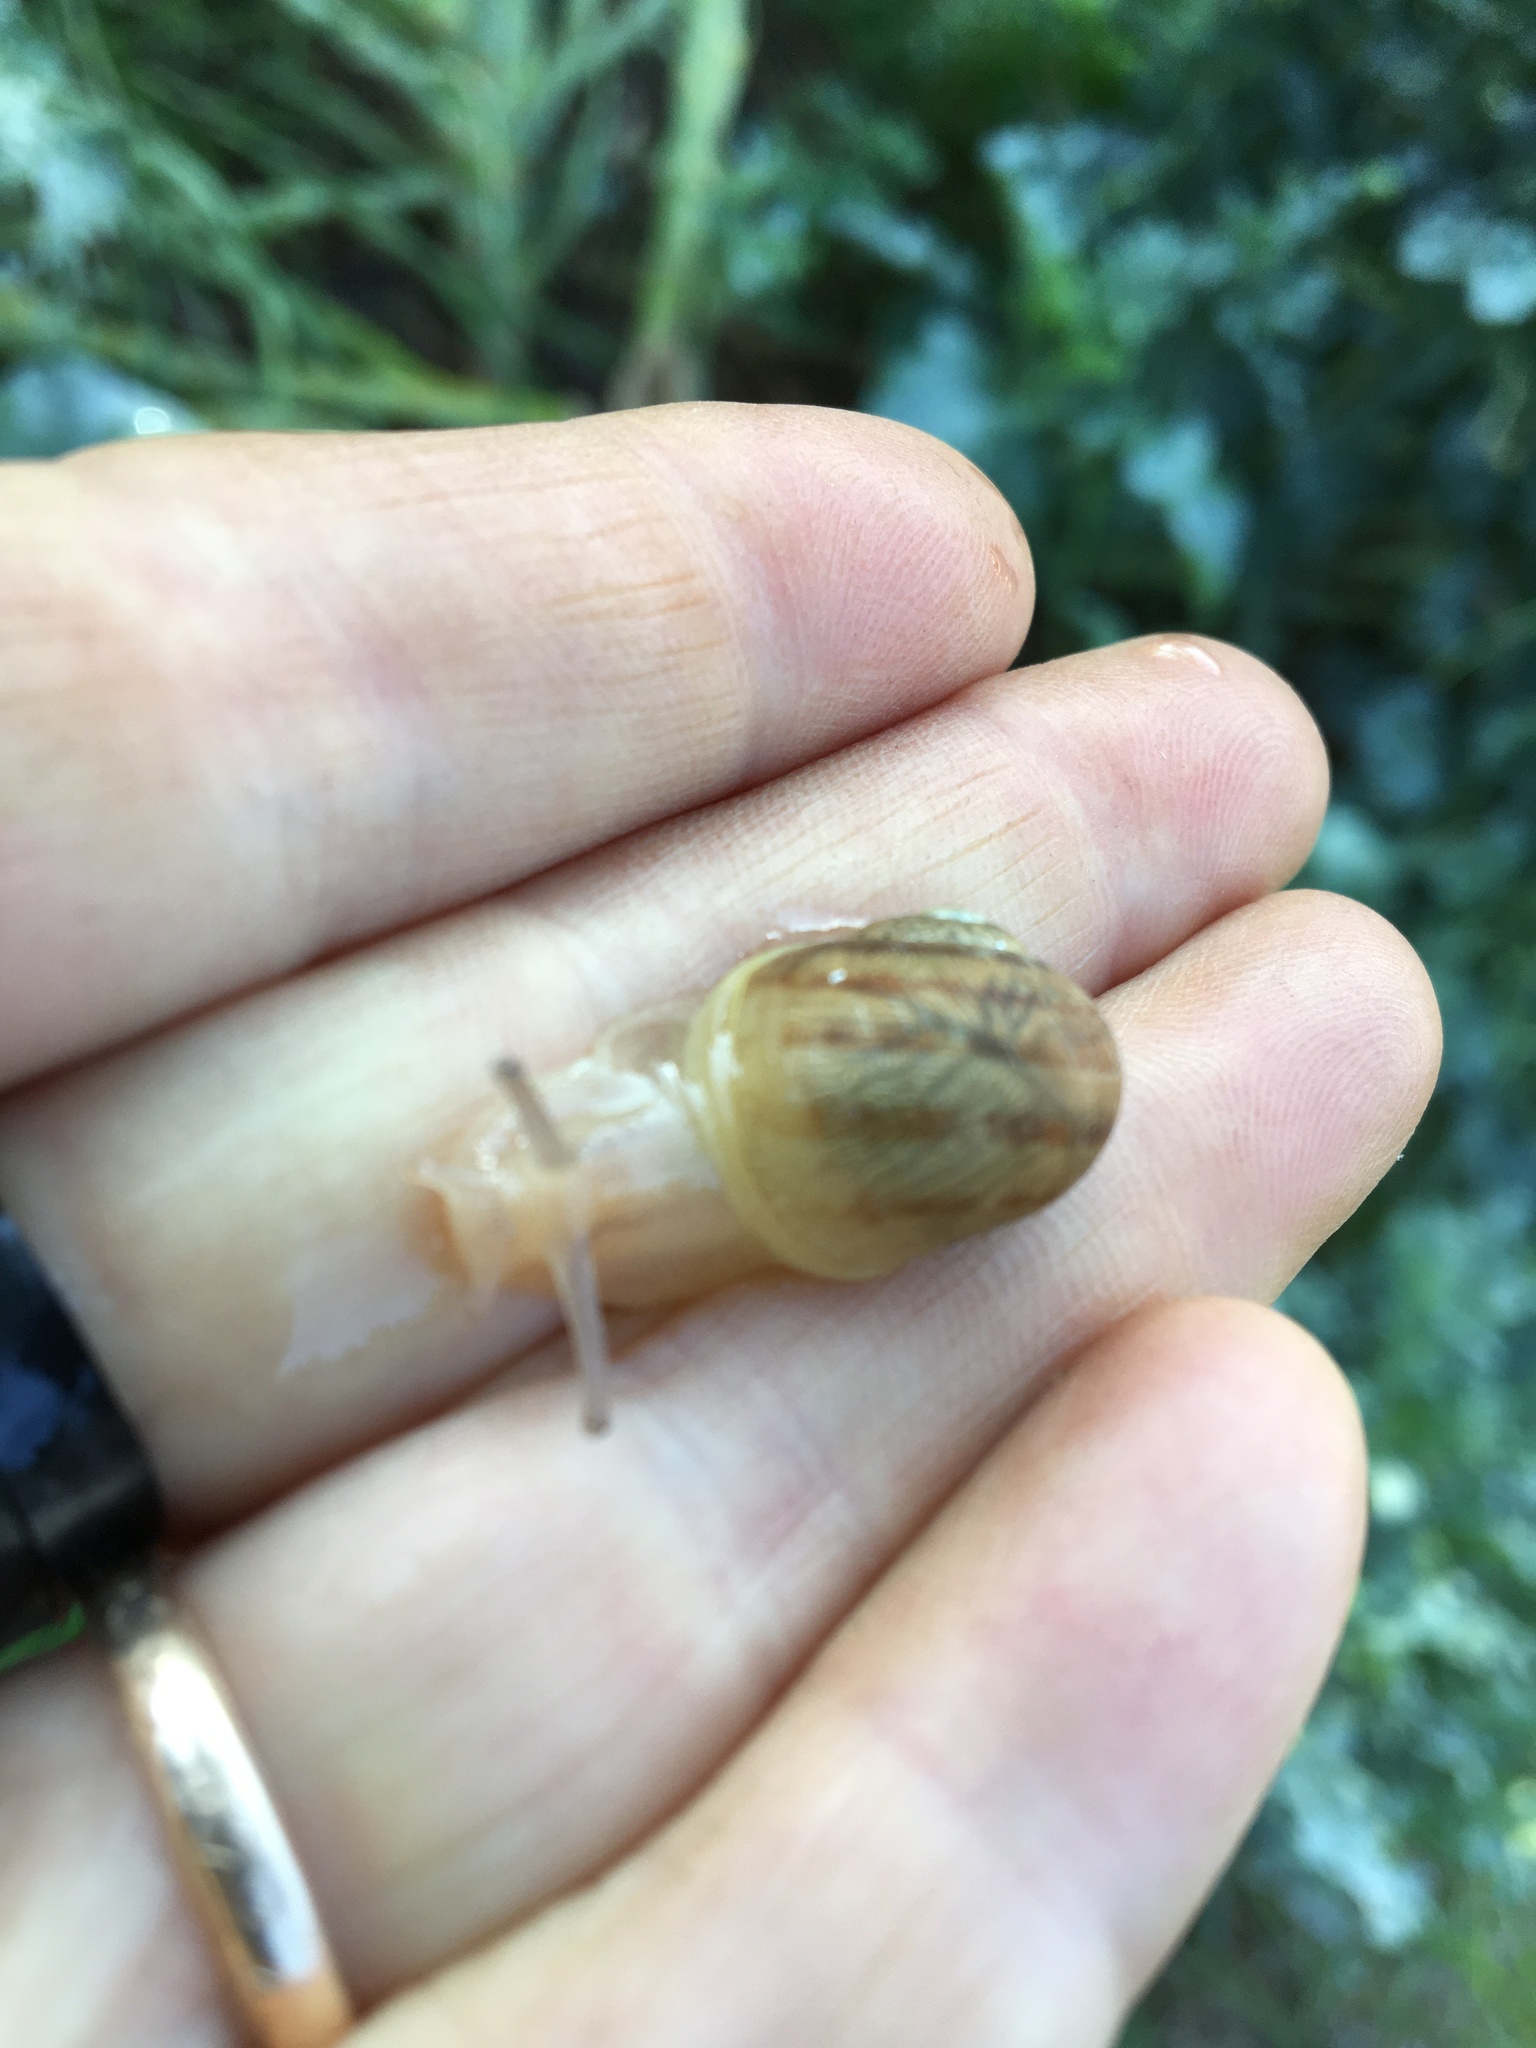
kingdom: Animalia
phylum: Mollusca
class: Gastropoda
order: Stylommatophora
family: Helicidae
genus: Cornu
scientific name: Cornu aspersum
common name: Brown garden snail
